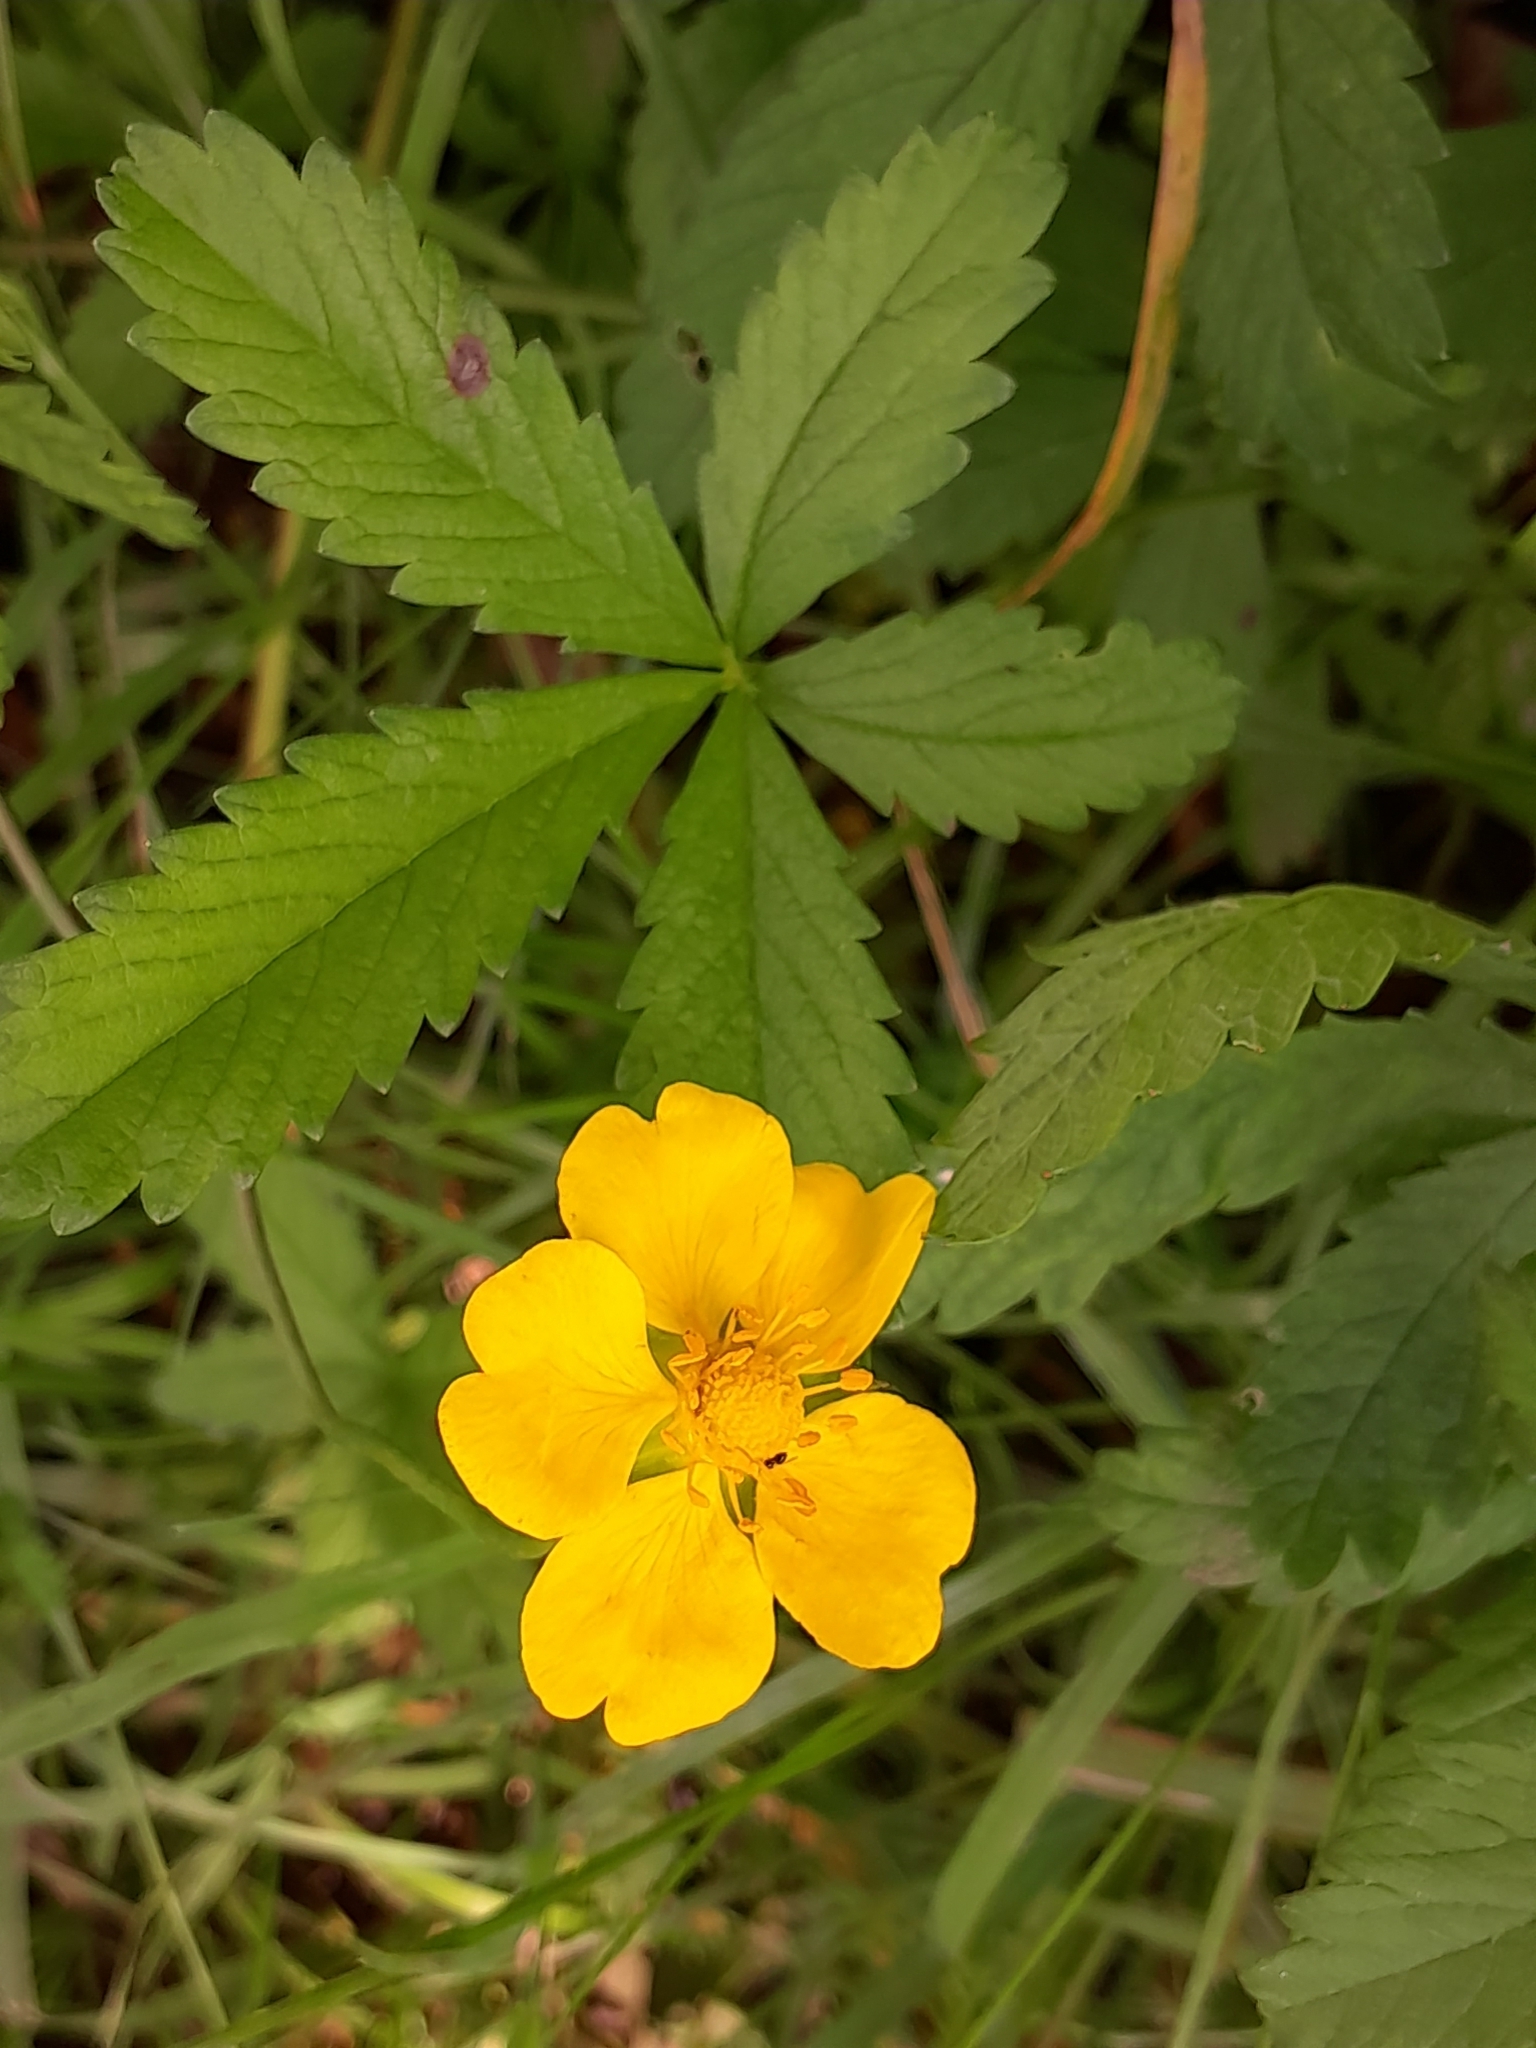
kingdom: Plantae
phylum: Tracheophyta
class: Magnoliopsida
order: Rosales
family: Rosaceae
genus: Potentilla
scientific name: Potentilla reptans
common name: Creeping cinquefoil
